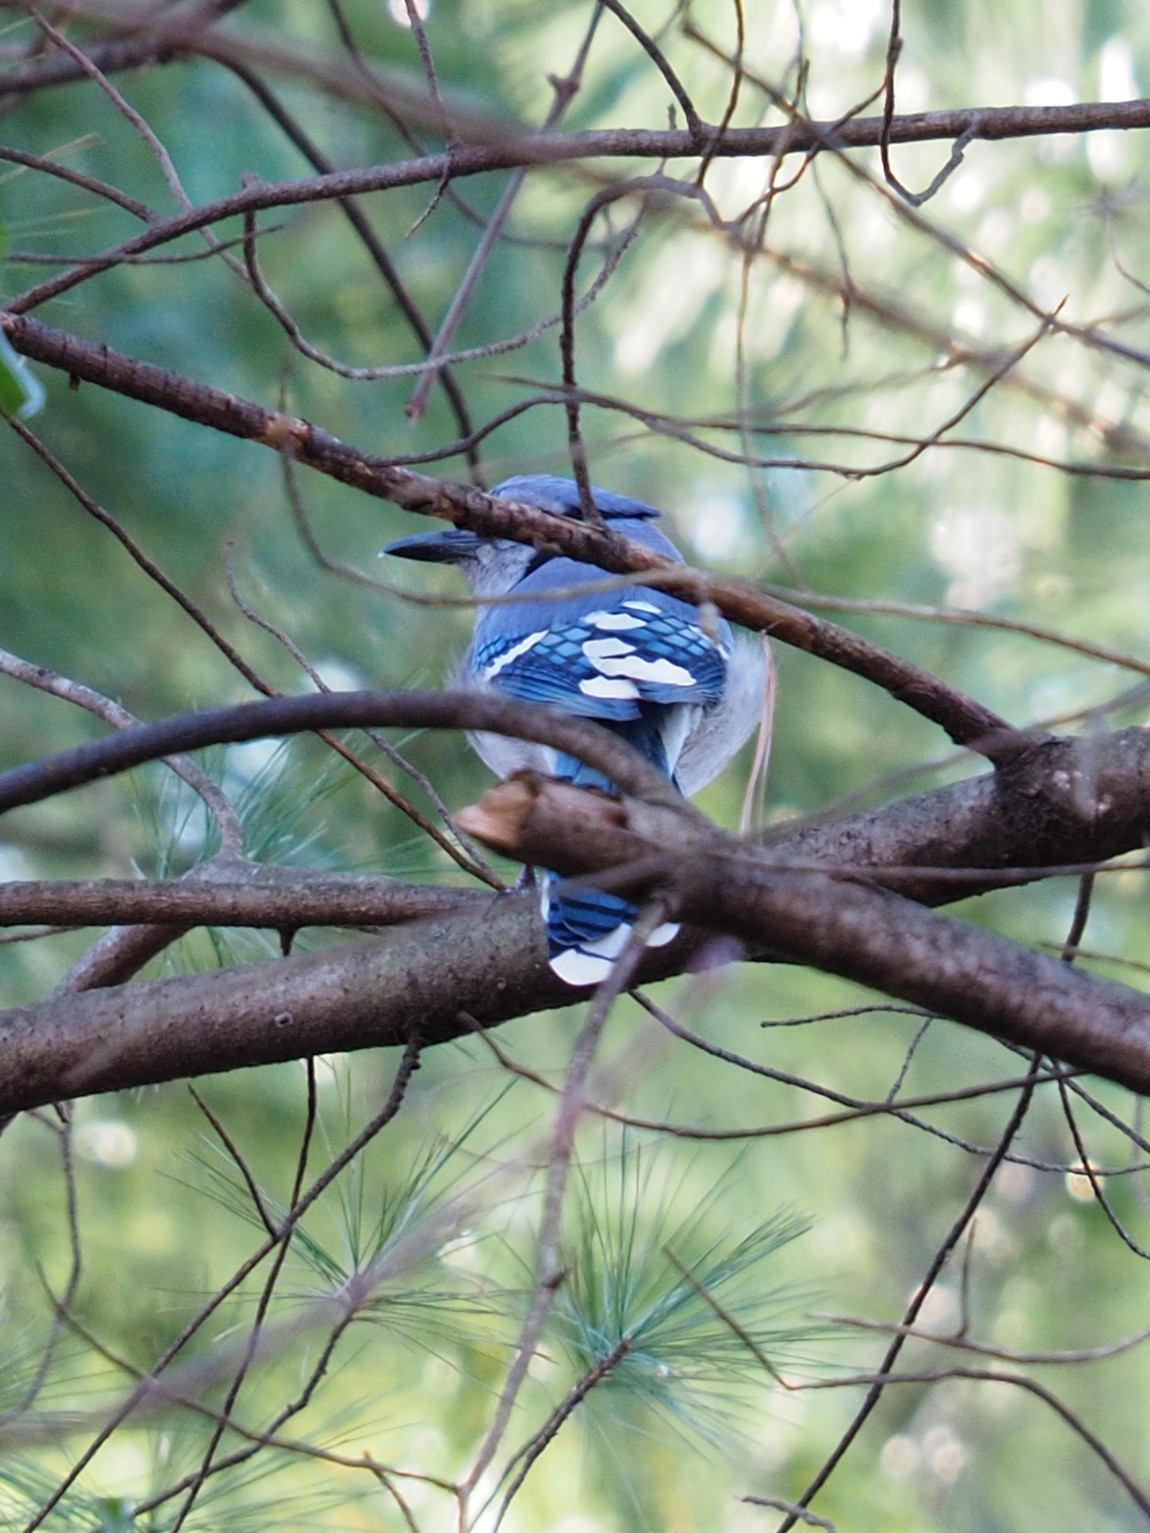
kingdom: Animalia
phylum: Chordata
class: Aves
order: Passeriformes
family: Corvidae
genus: Cyanocitta
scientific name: Cyanocitta cristata
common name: Blue jay
